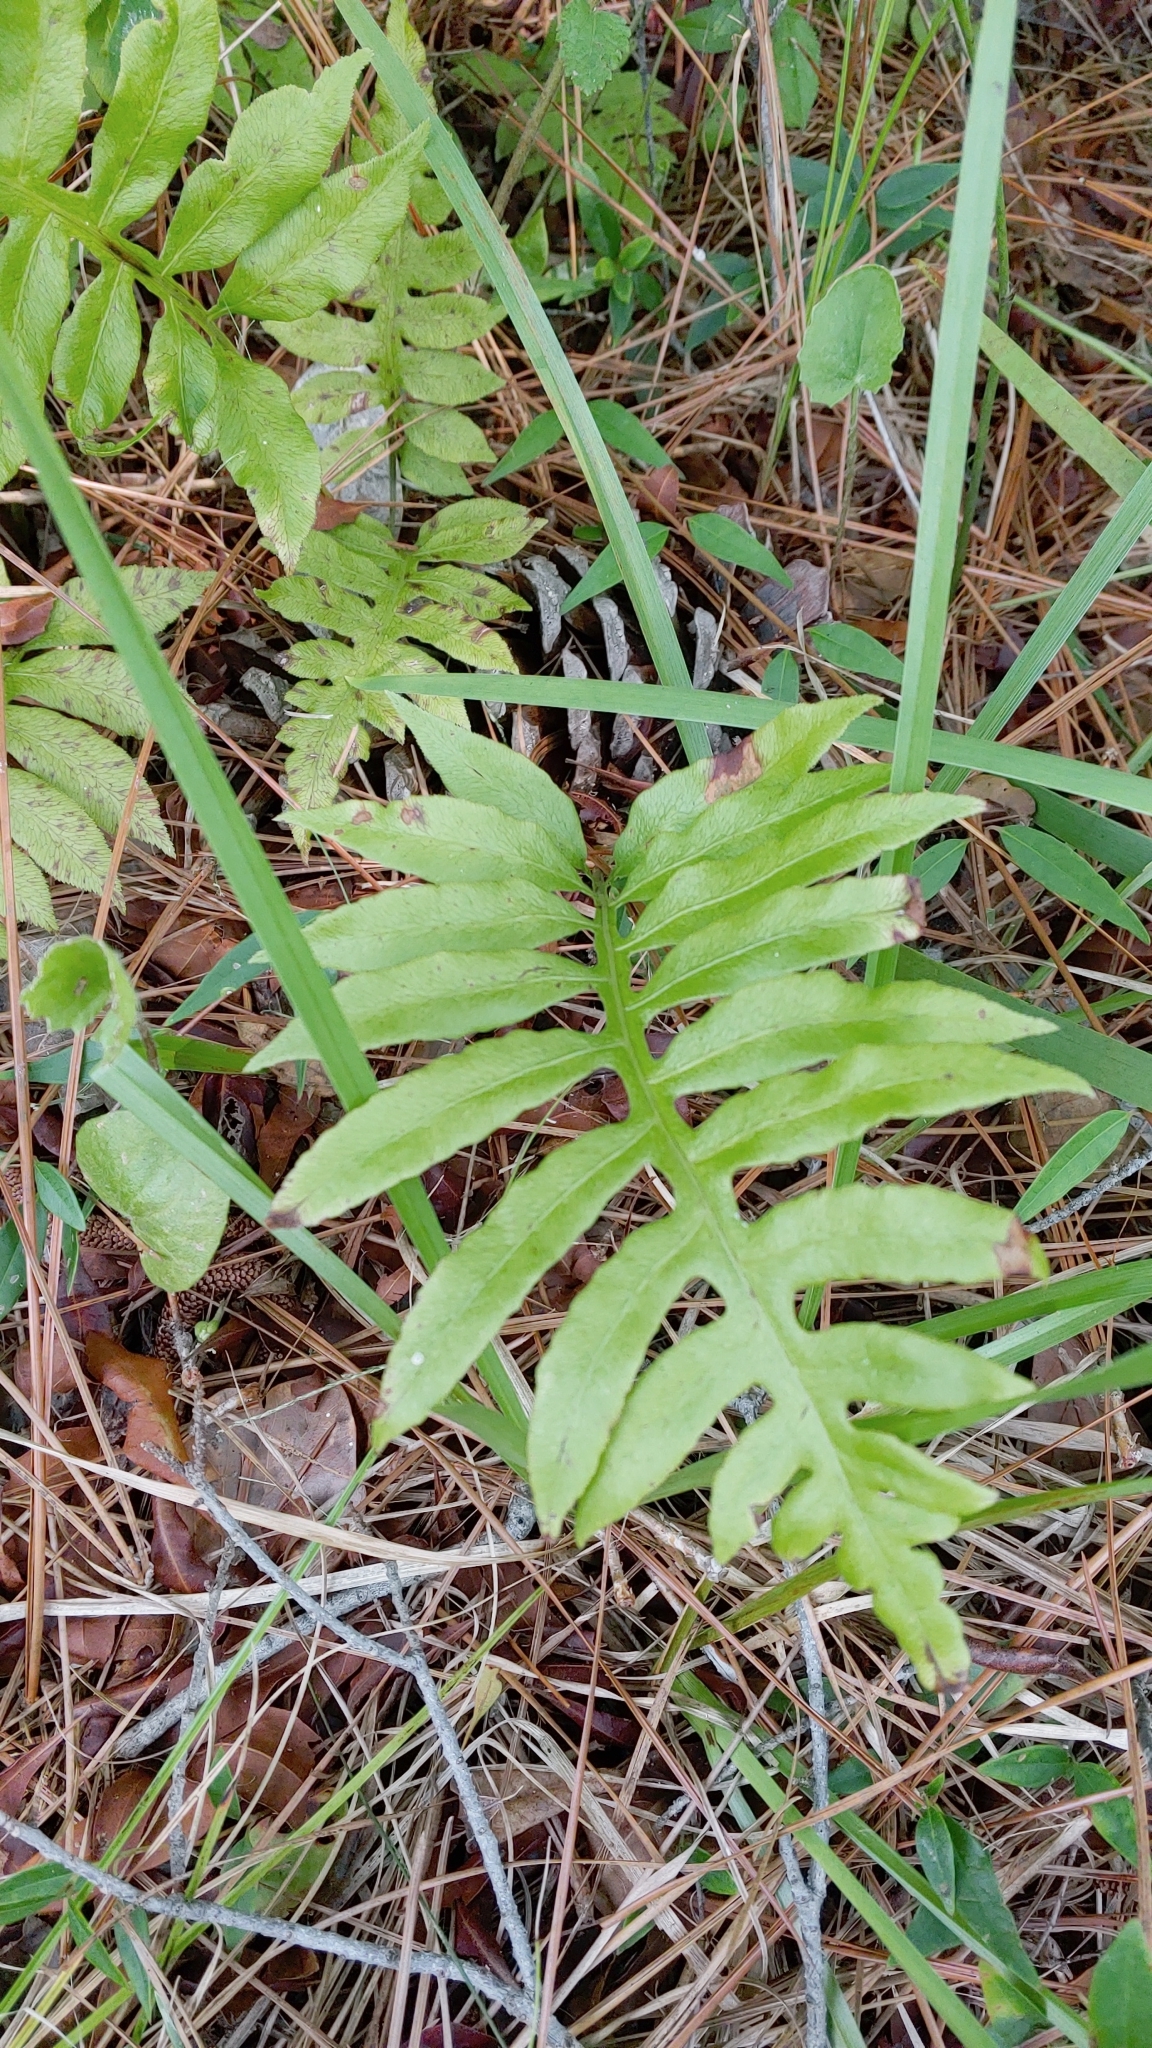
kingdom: Plantae
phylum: Tracheophyta
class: Polypodiopsida
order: Polypodiales
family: Blechnaceae
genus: Lorinseria
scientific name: Lorinseria areolata
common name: Dwarf chain fern
